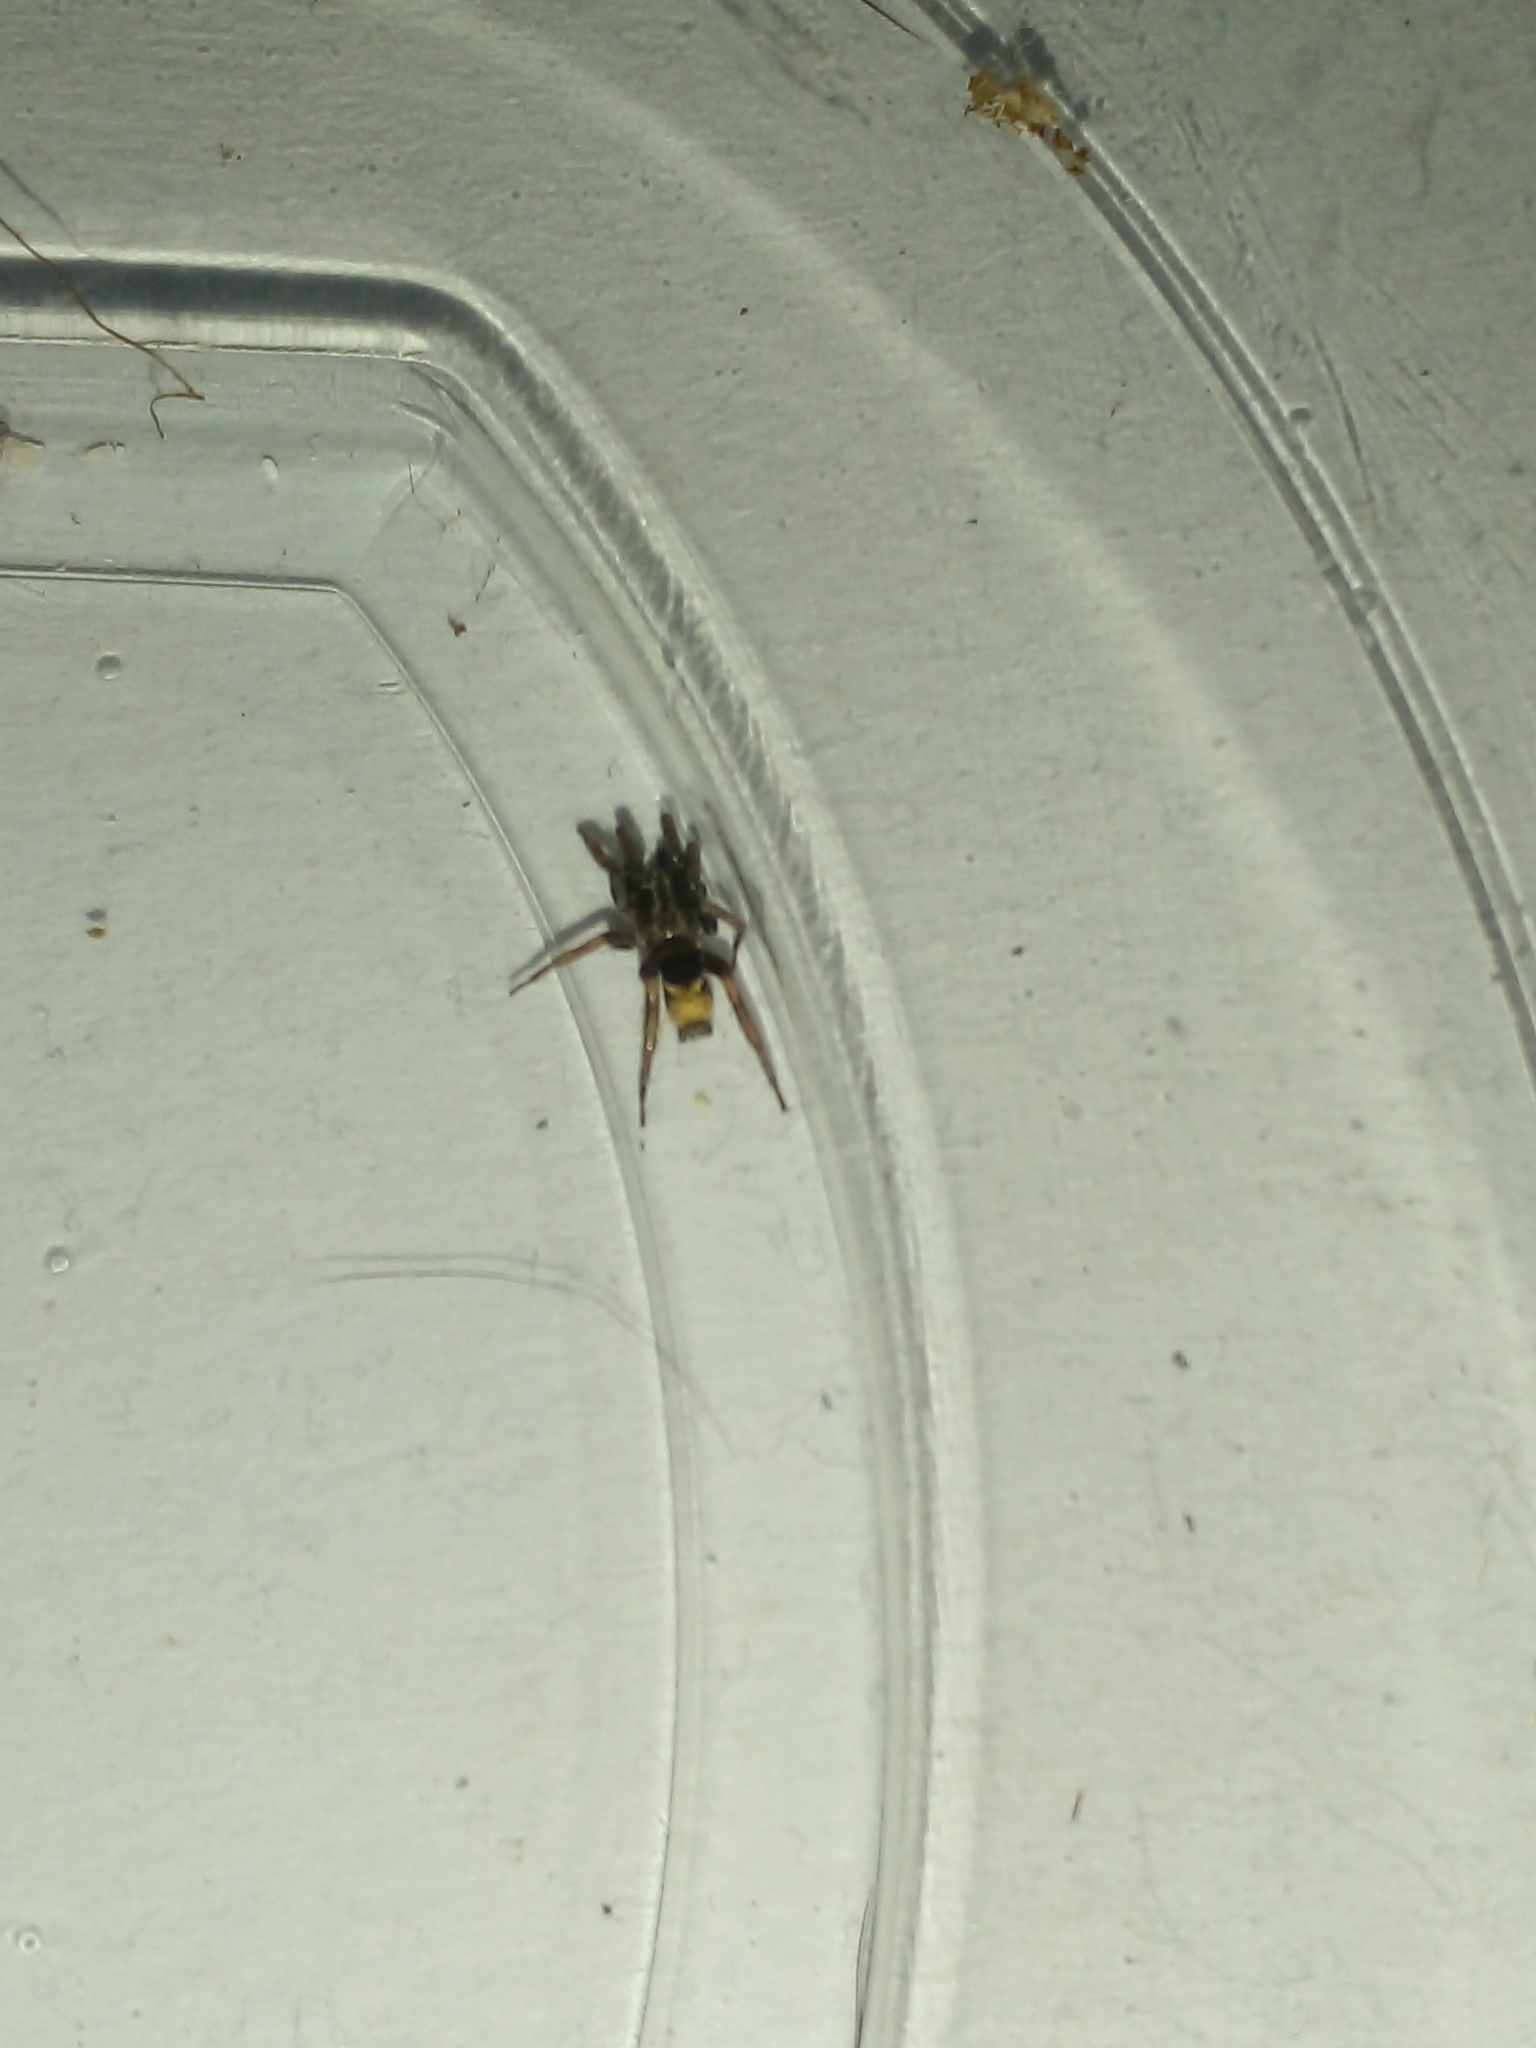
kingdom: Animalia
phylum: Arthropoda
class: Arachnida
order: Araneae
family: Gnaphosidae
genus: Latonigena
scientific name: Latonigena auricomis
